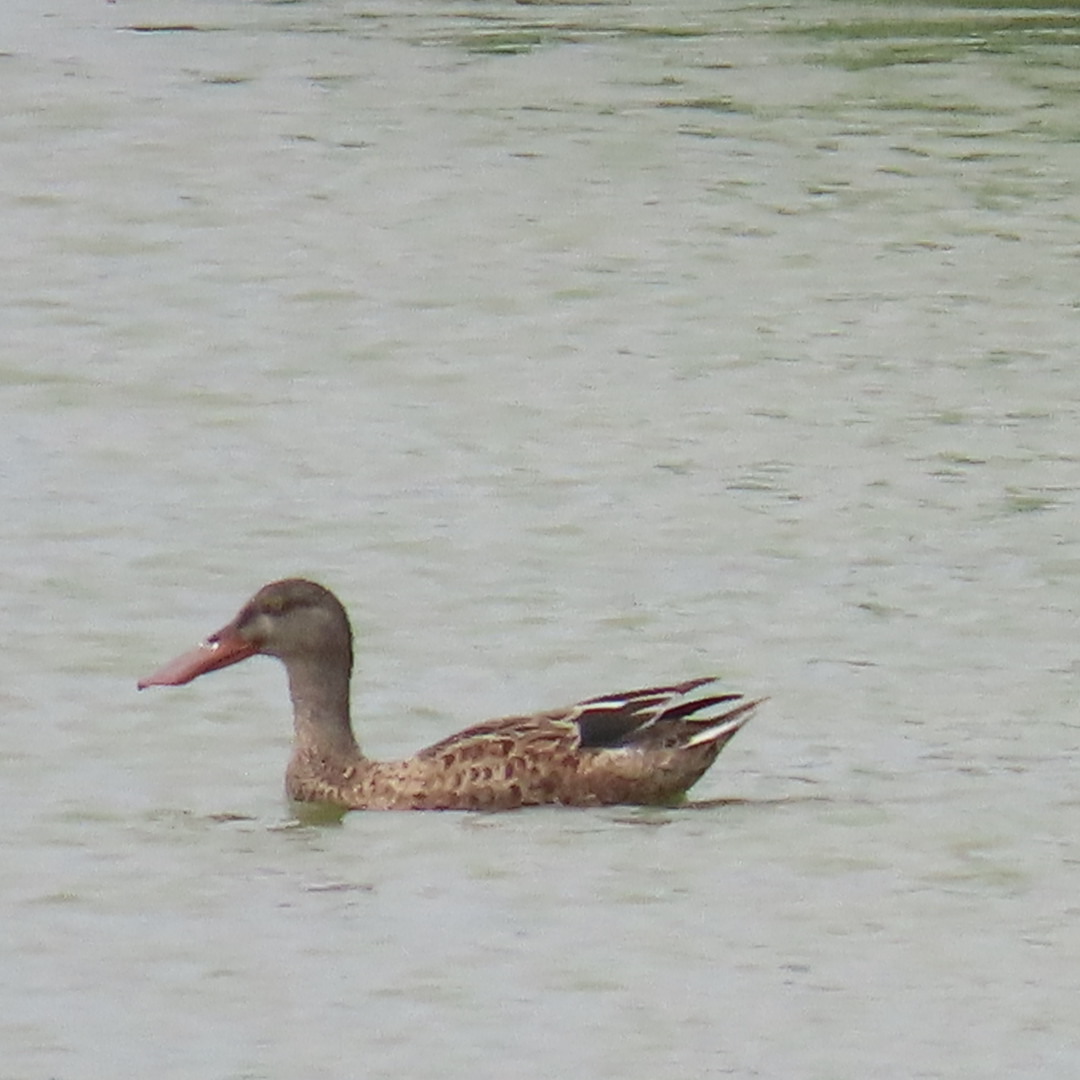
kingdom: Animalia
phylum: Chordata
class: Aves
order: Anseriformes
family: Anatidae
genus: Spatula
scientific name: Spatula clypeata
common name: Northern shoveler
